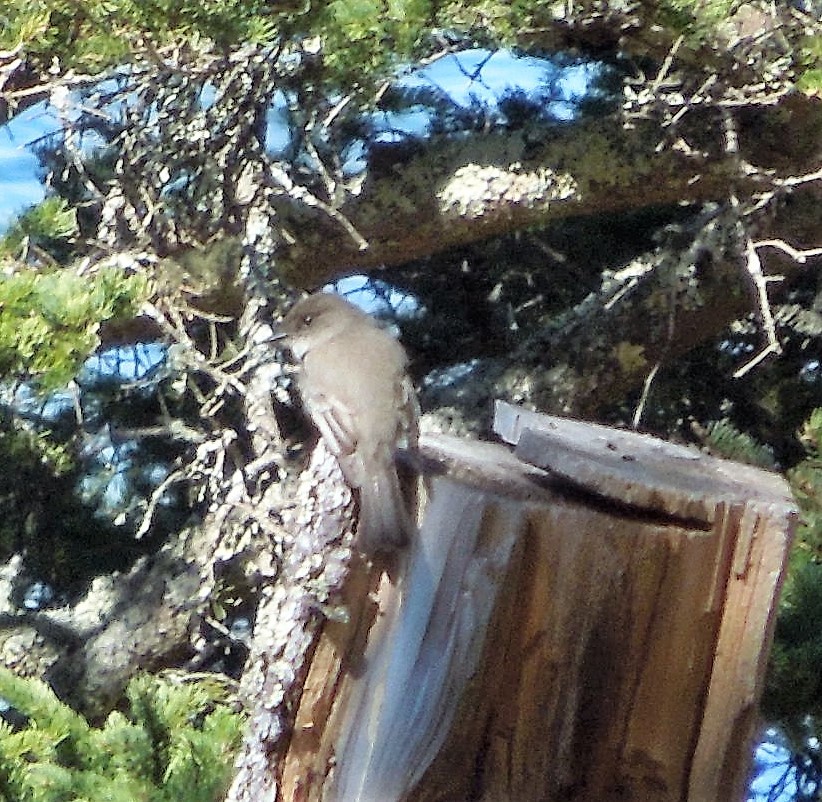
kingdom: Animalia
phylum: Chordata
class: Aves
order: Passeriformes
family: Tyrannidae
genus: Sayornis
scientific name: Sayornis phoebe
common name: Eastern phoebe
